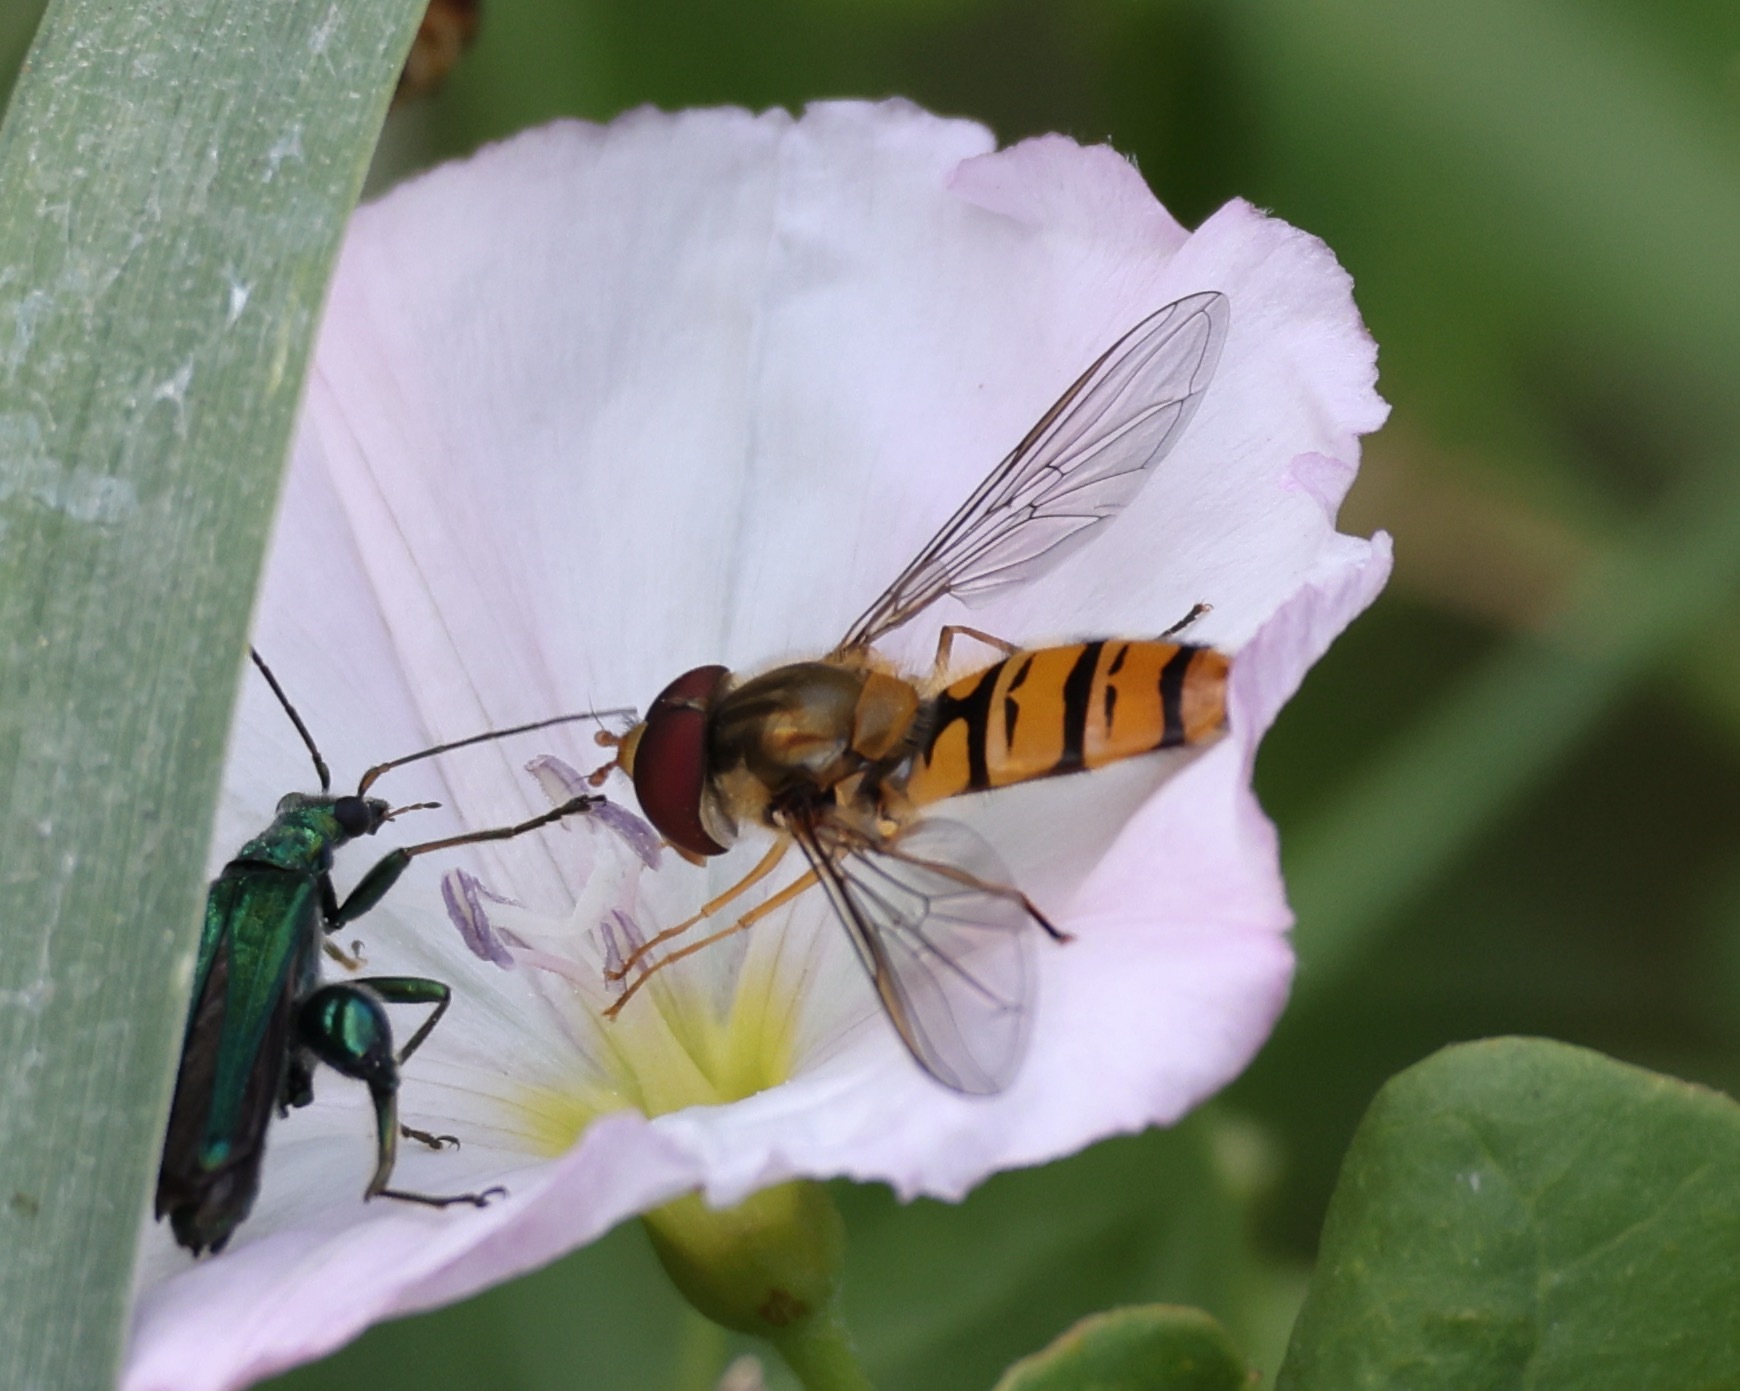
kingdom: Animalia
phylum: Arthropoda
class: Insecta
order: Diptera
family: Syrphidae
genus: Episyrphus
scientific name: Episyrphus balteatus
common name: Marmalade hoverfly
